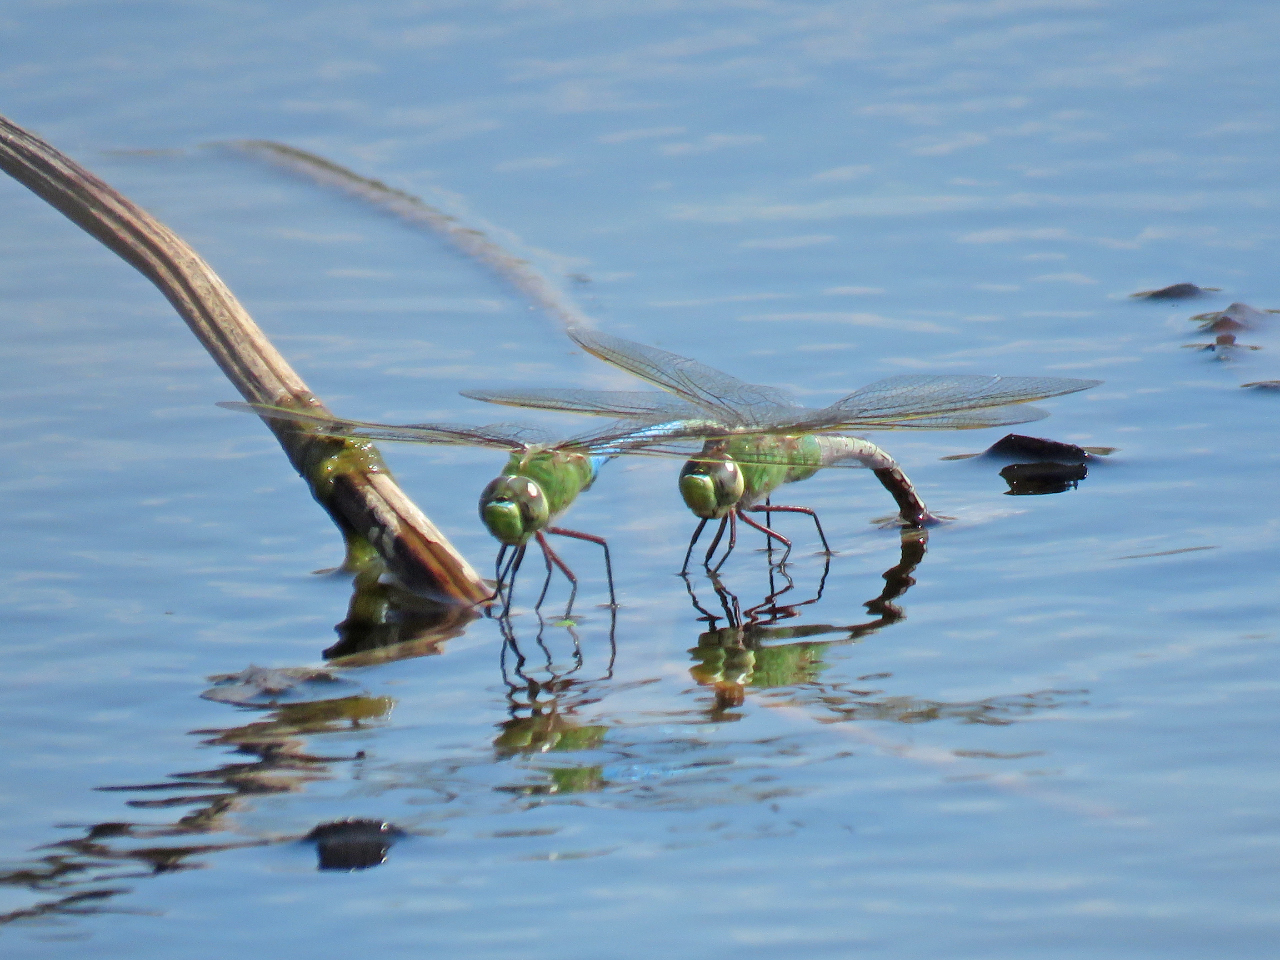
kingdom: Animalia
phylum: Arthropoda
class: Insecta
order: Odonata
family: Aeshnidae
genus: Anax
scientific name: Anax junius
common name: Common green darner
